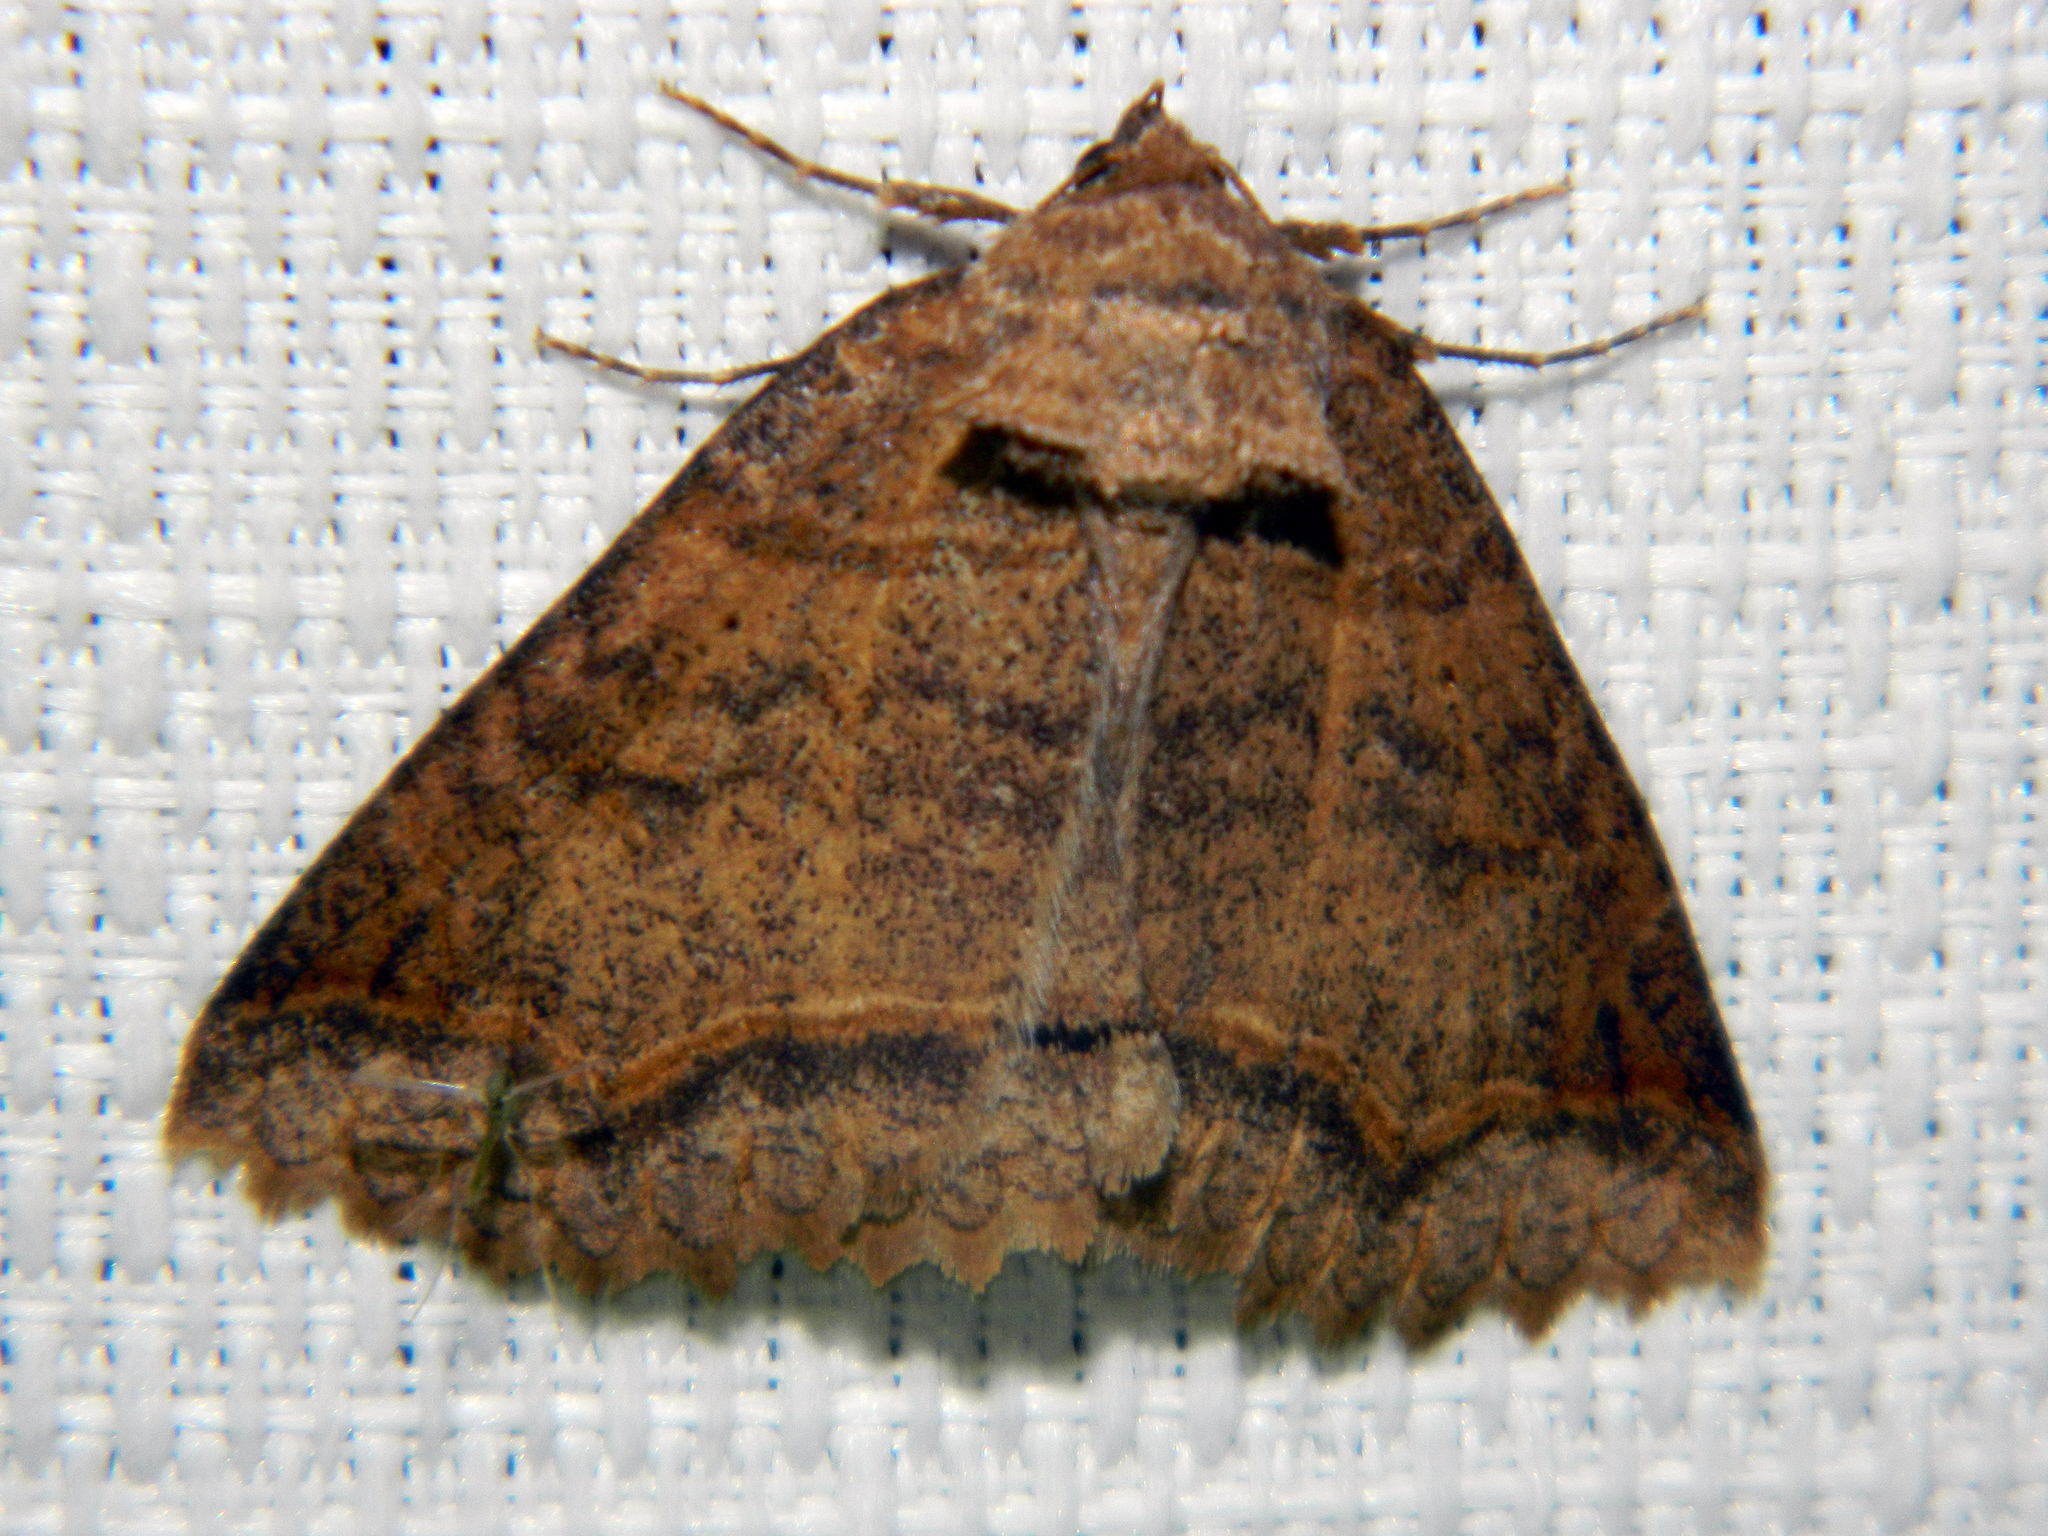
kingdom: Animalia
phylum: Arthropoda
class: Insecta
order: Lepidoptera
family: Erebidae
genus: Zale
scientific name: Zale unilineata
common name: One-lined zale moth
